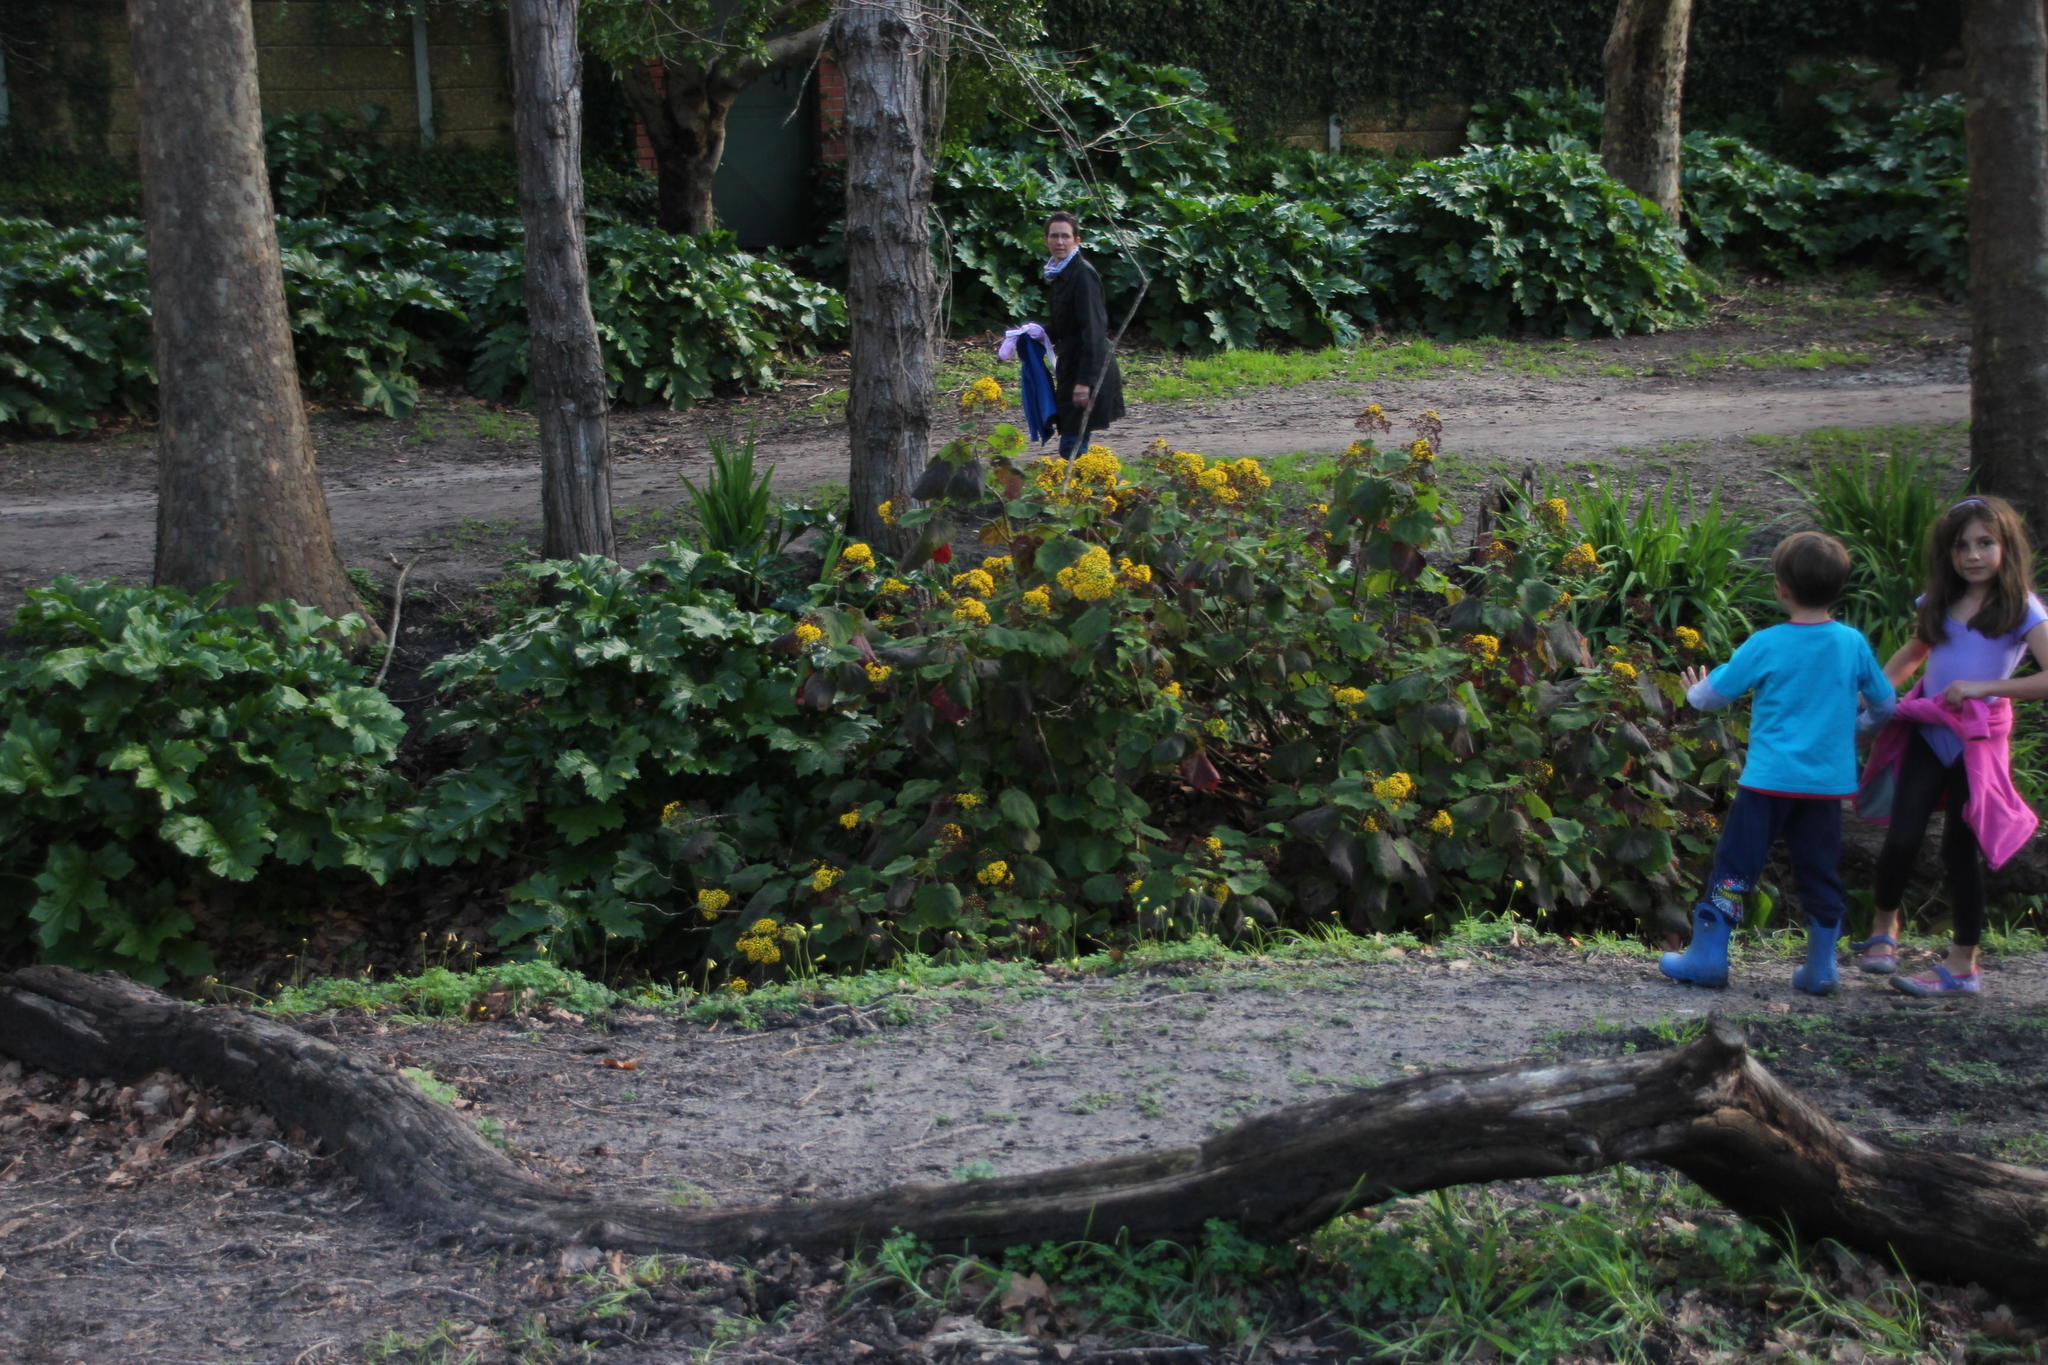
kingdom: Plantae
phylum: Tracheophyta
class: Magnoliopsida
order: Asterales
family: Asteraceae
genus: Roldana
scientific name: Roldana petasitis
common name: California-geranium
